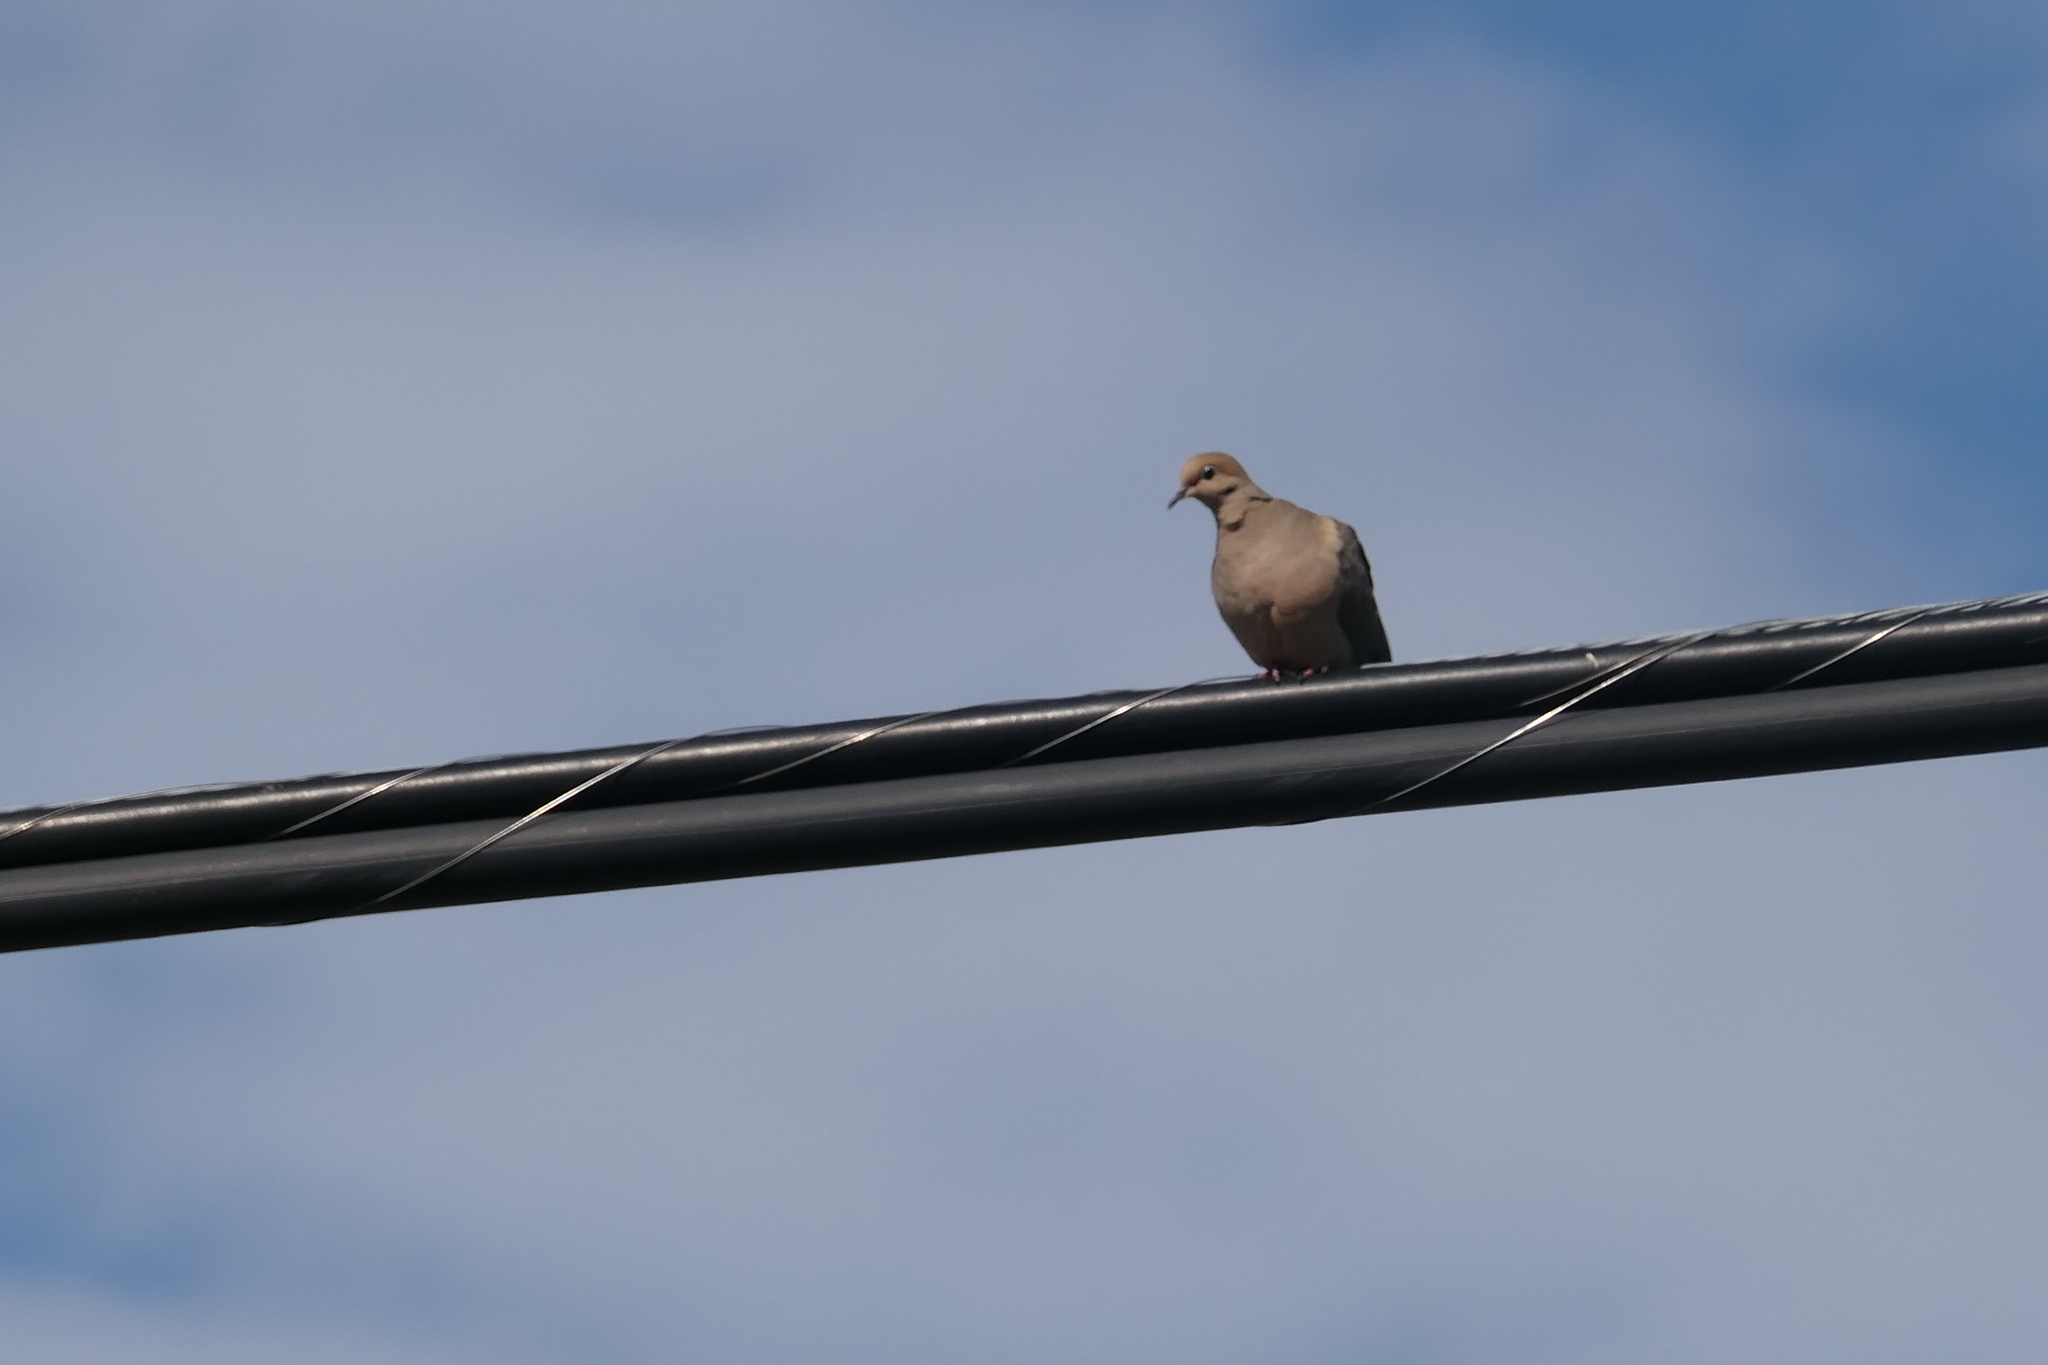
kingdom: Animalia
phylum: Chordata
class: Aves
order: Columbiformes
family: Columbidae
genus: Zenaida
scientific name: Zenaida macroura
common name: Mourning dove
